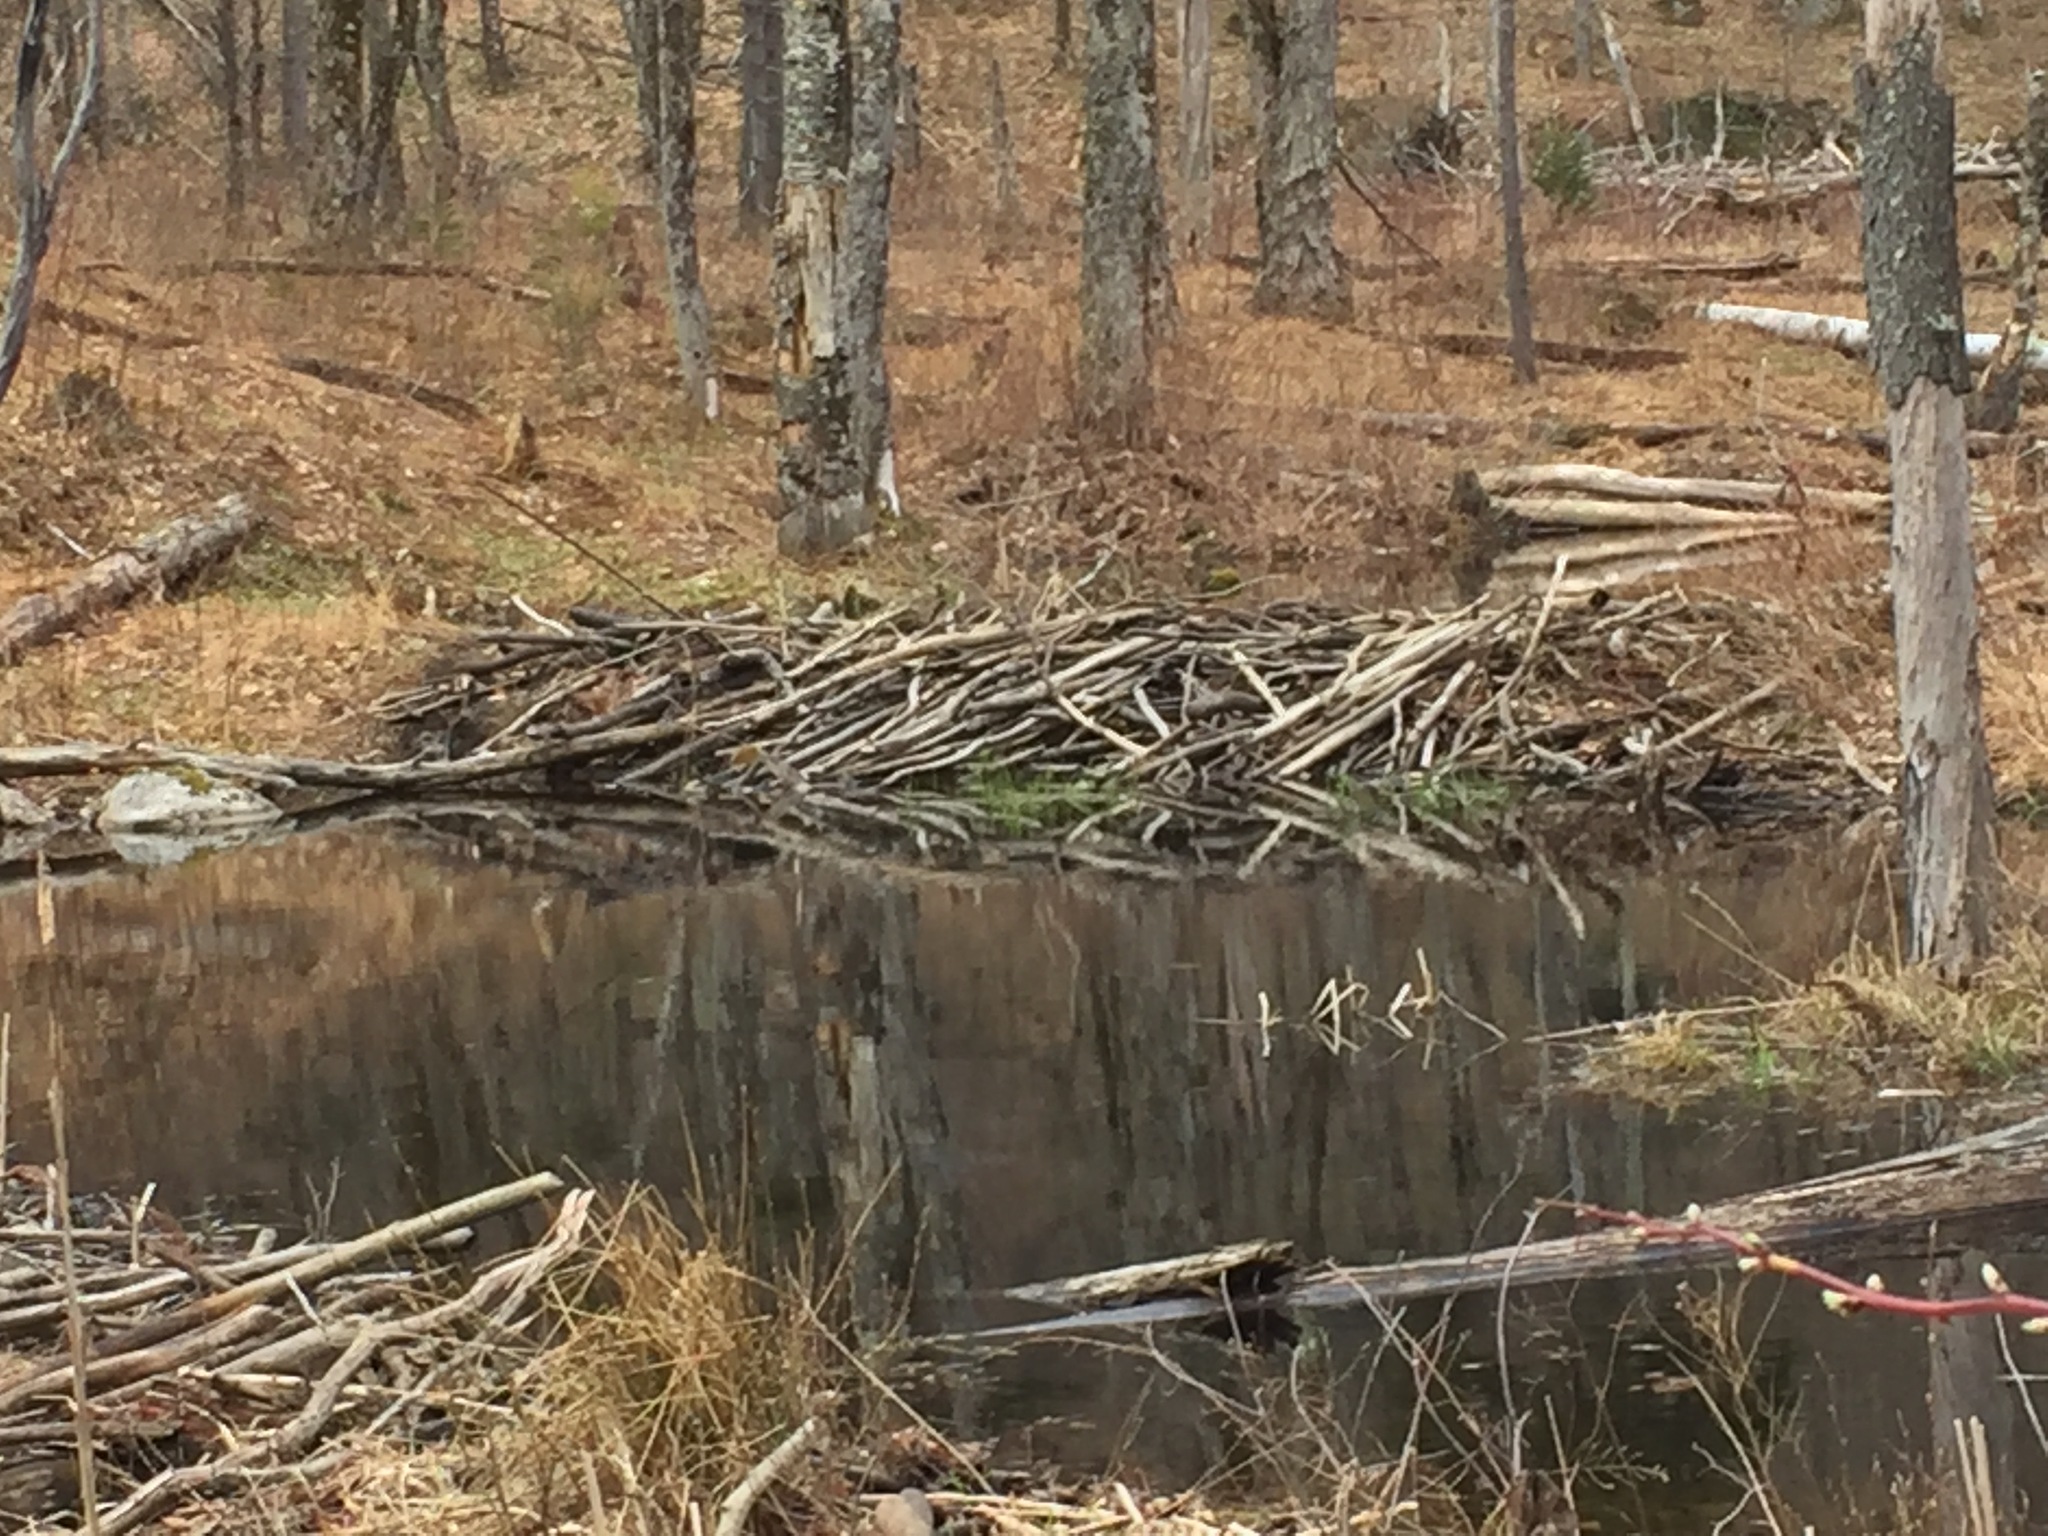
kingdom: Animalia
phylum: Chordata
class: Mammalia
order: Rodentia
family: Castoridae
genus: Castor
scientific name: Castor canadensis
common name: American beaver
